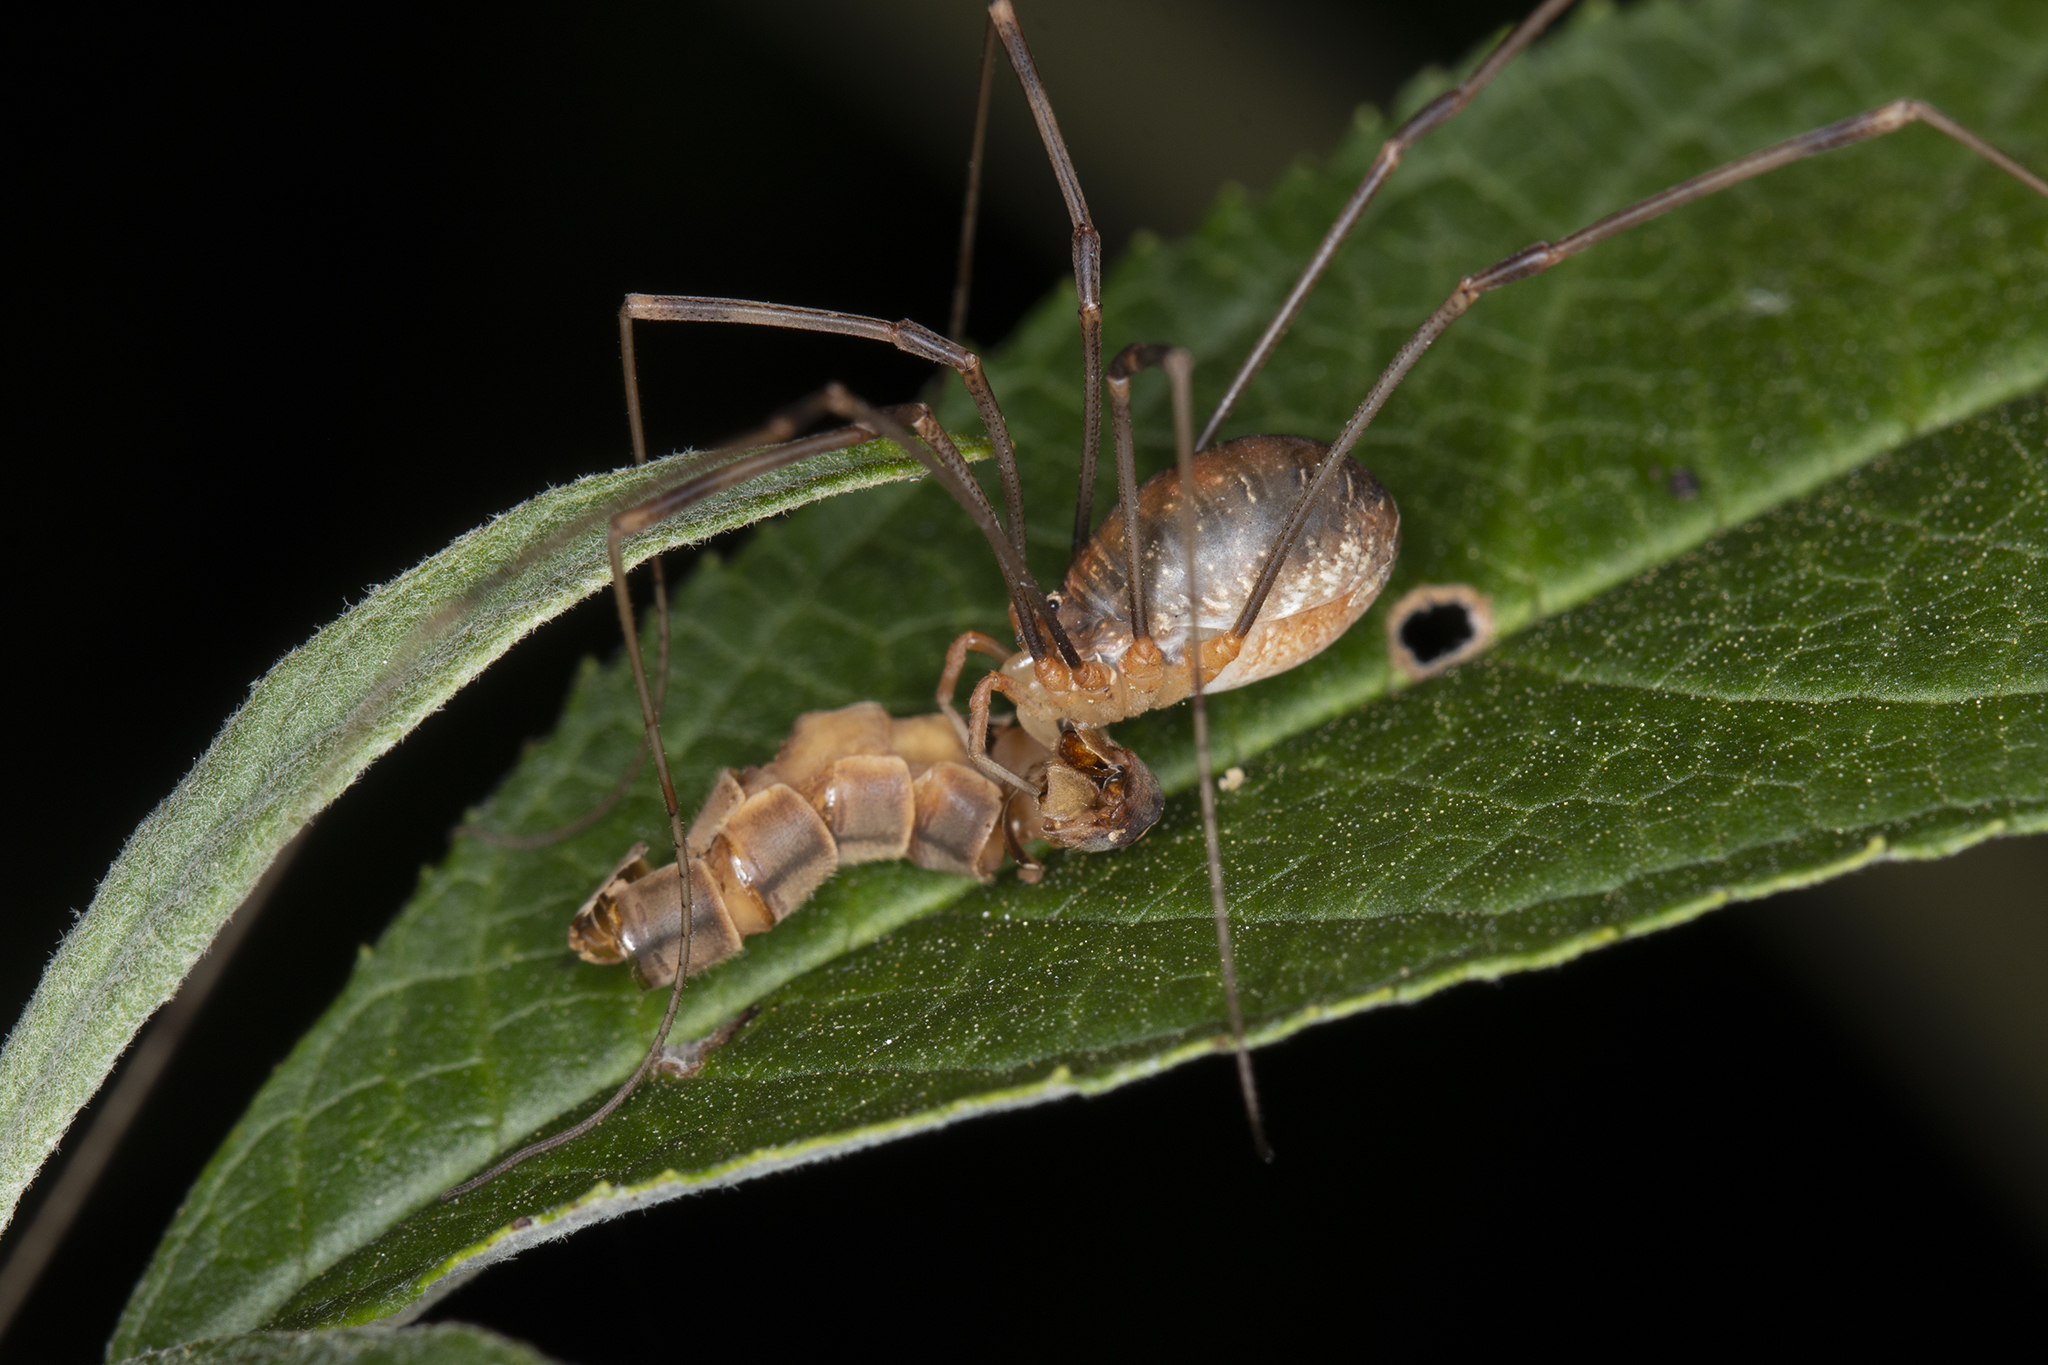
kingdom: Animalia
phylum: Arthropoda
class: Arachnida
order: Opiliones
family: Phalangiidae
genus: Opilio
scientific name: Opilio canestrinii
